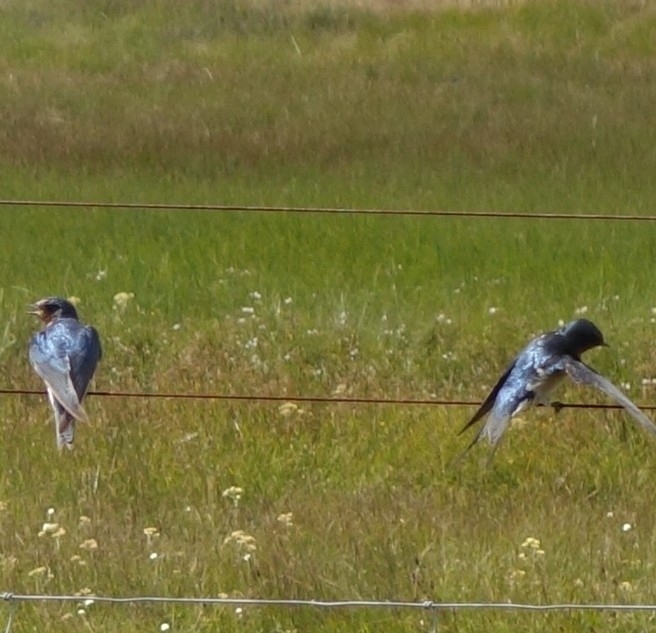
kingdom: Animalia
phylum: Chordata
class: Aves
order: Passeriformes
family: Hirundinidae
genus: Hirundo
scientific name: Hirundo rustica
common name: Barn swallow
